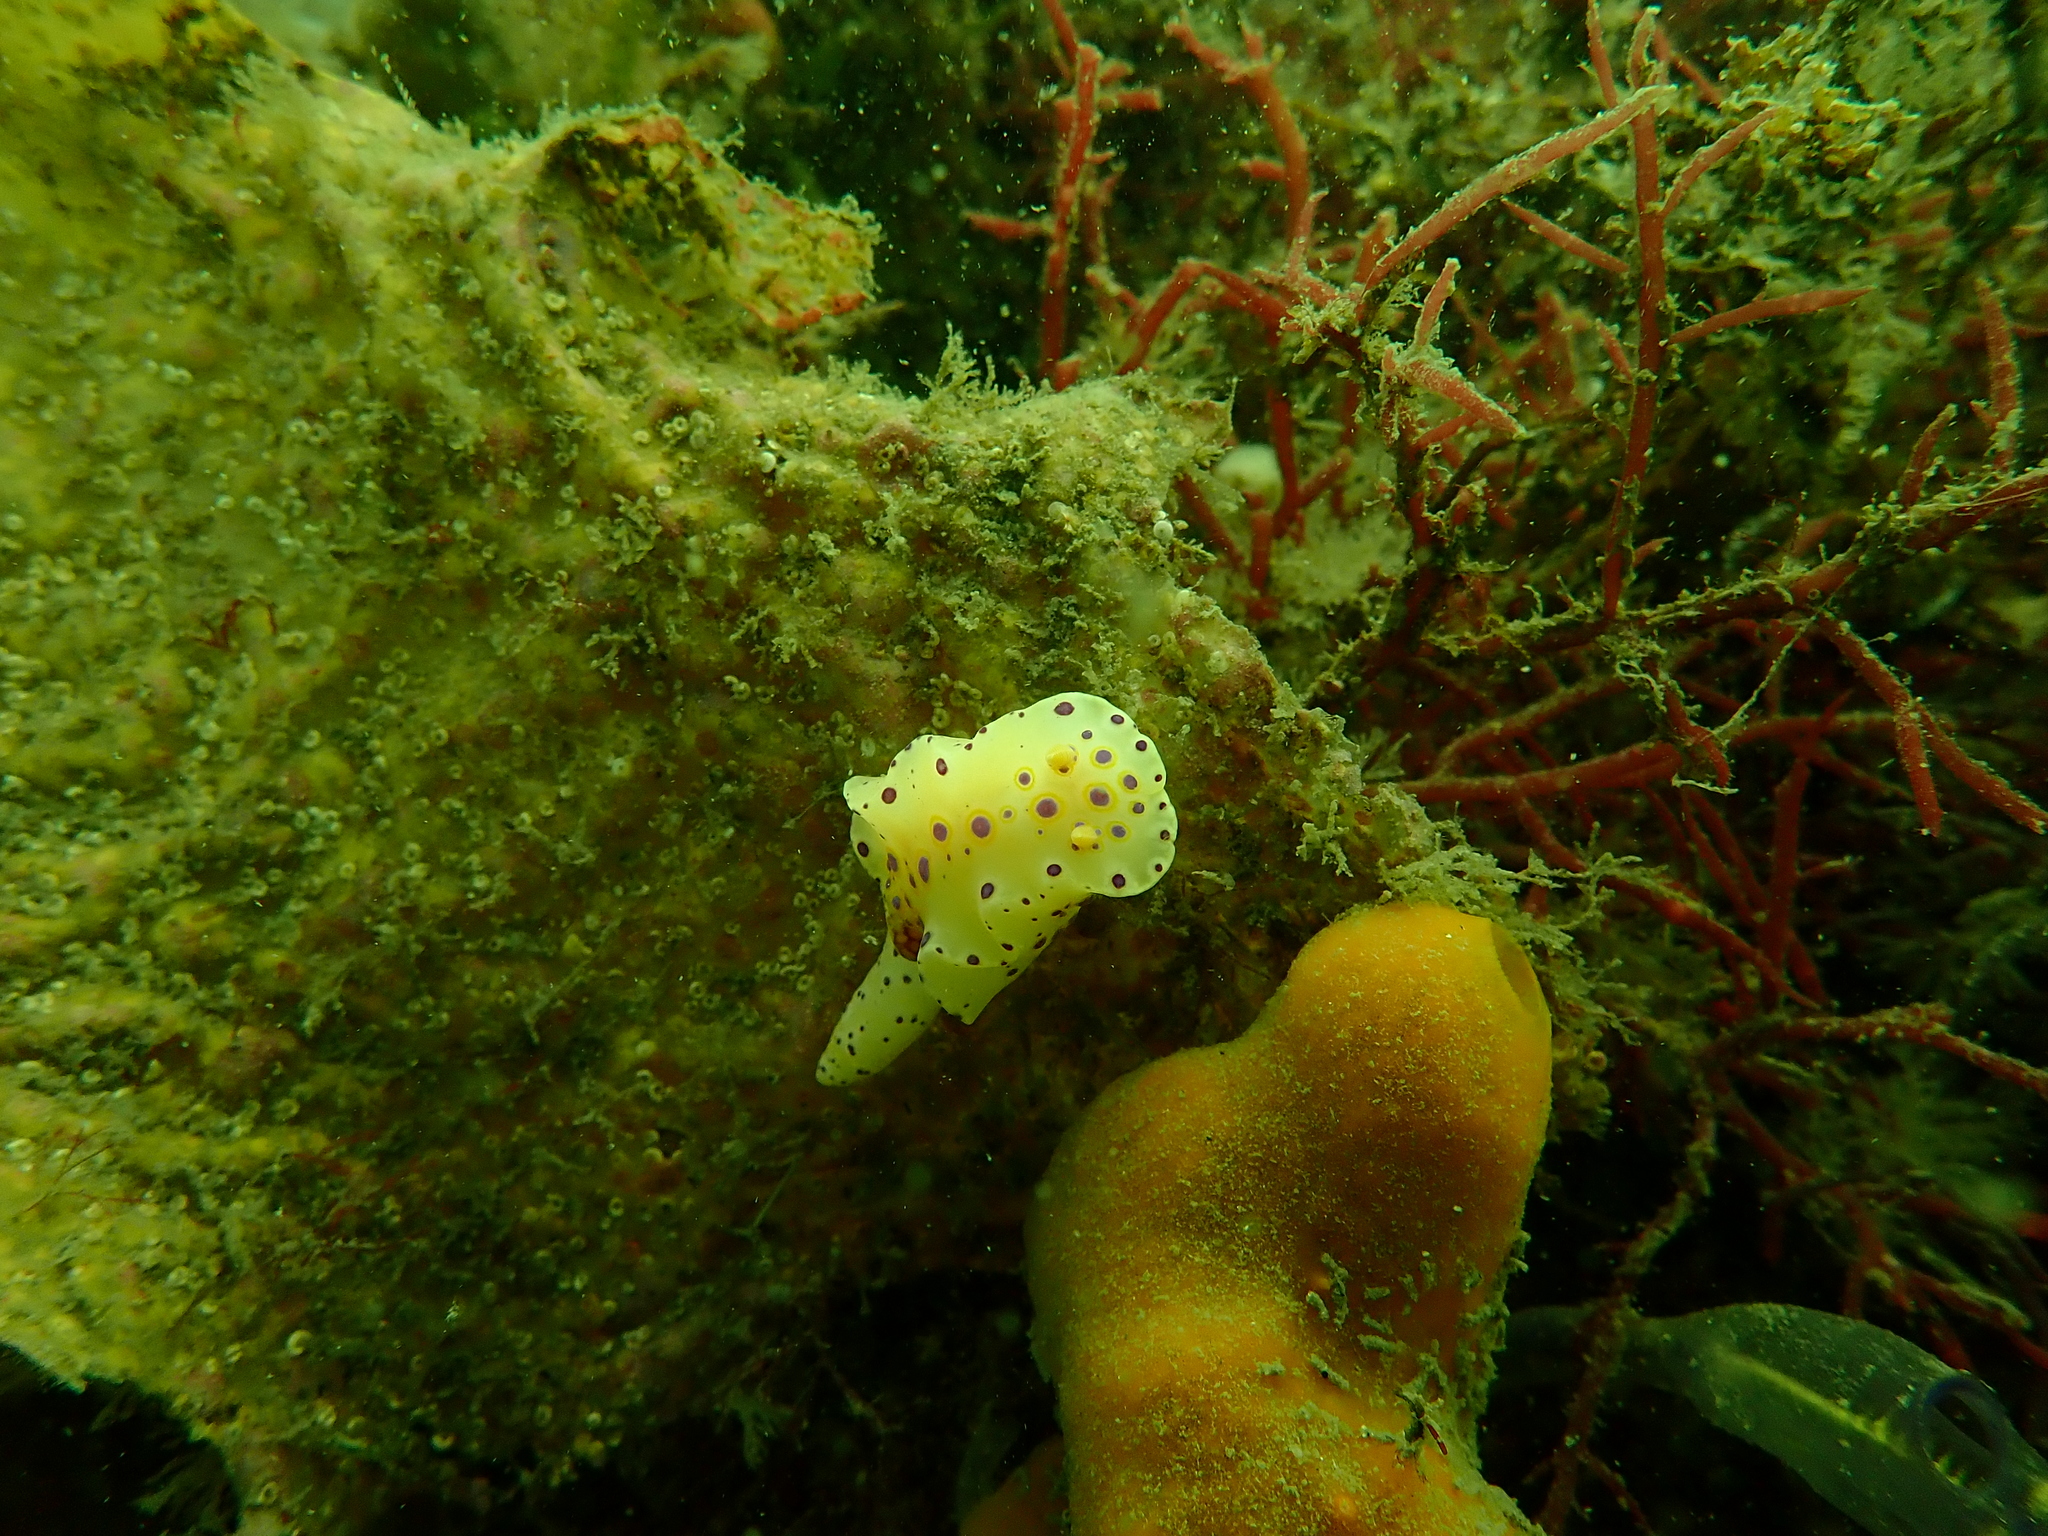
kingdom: Animalia
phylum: Mollusca
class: Gastropoda
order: Nudibranchia
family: Chromodorididae
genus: Ceratosoma
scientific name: Ceratosoma brevicaudatum
